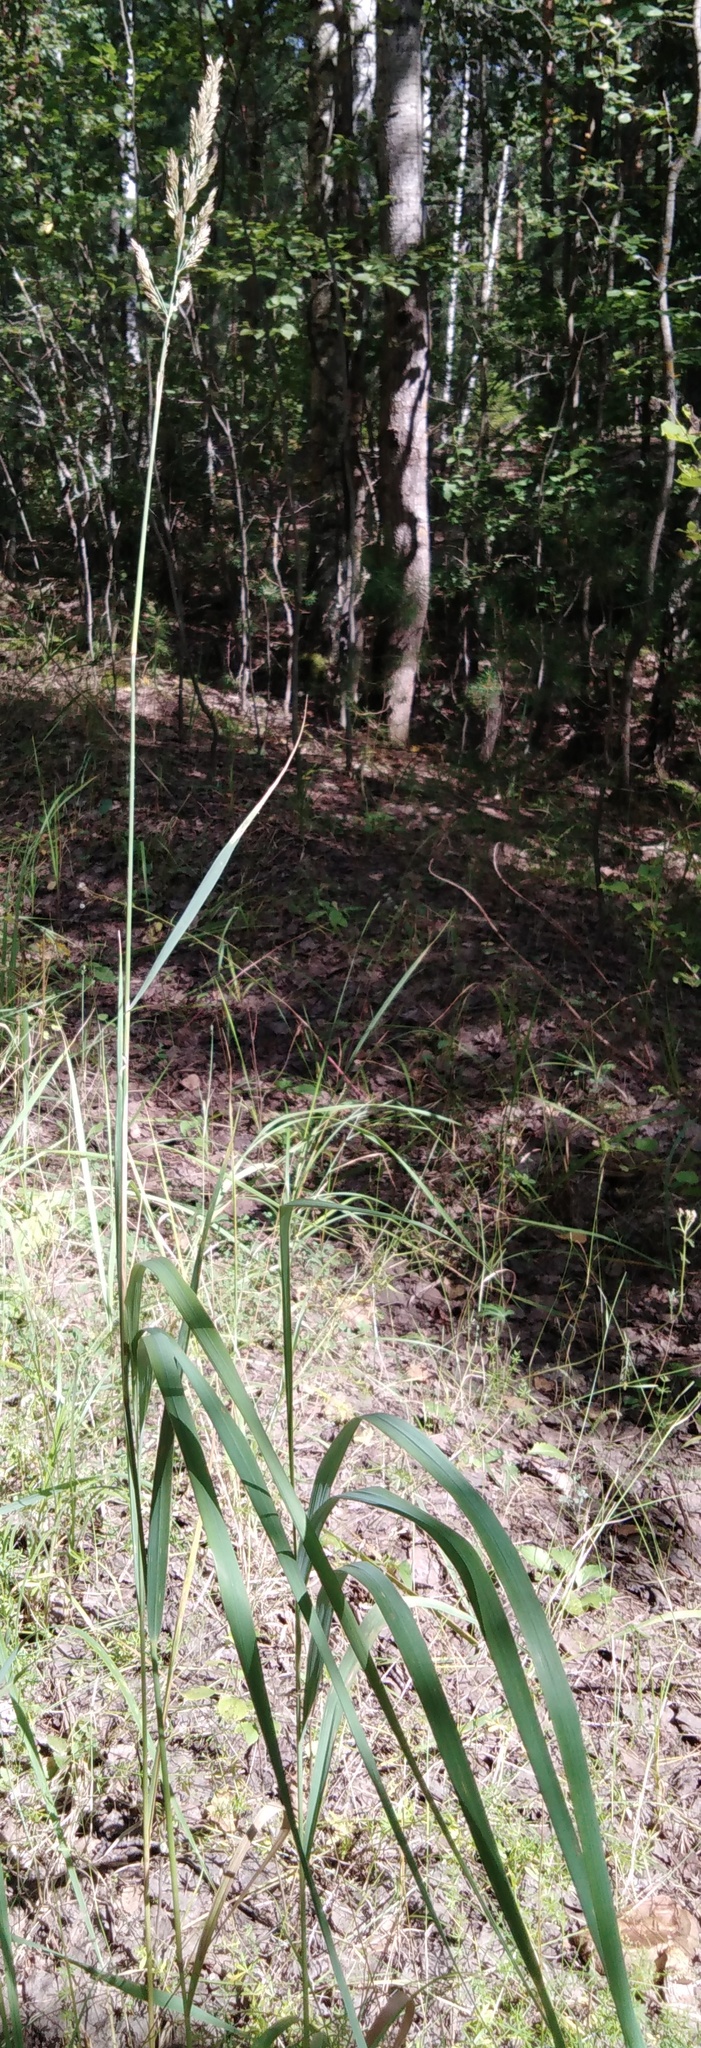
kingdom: Plantae
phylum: Tracheophyta
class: Liliopsida
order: Poales
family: Poaceae
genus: Calamagrostis
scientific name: Calamagrostis epigejos
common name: Wood small-reed
